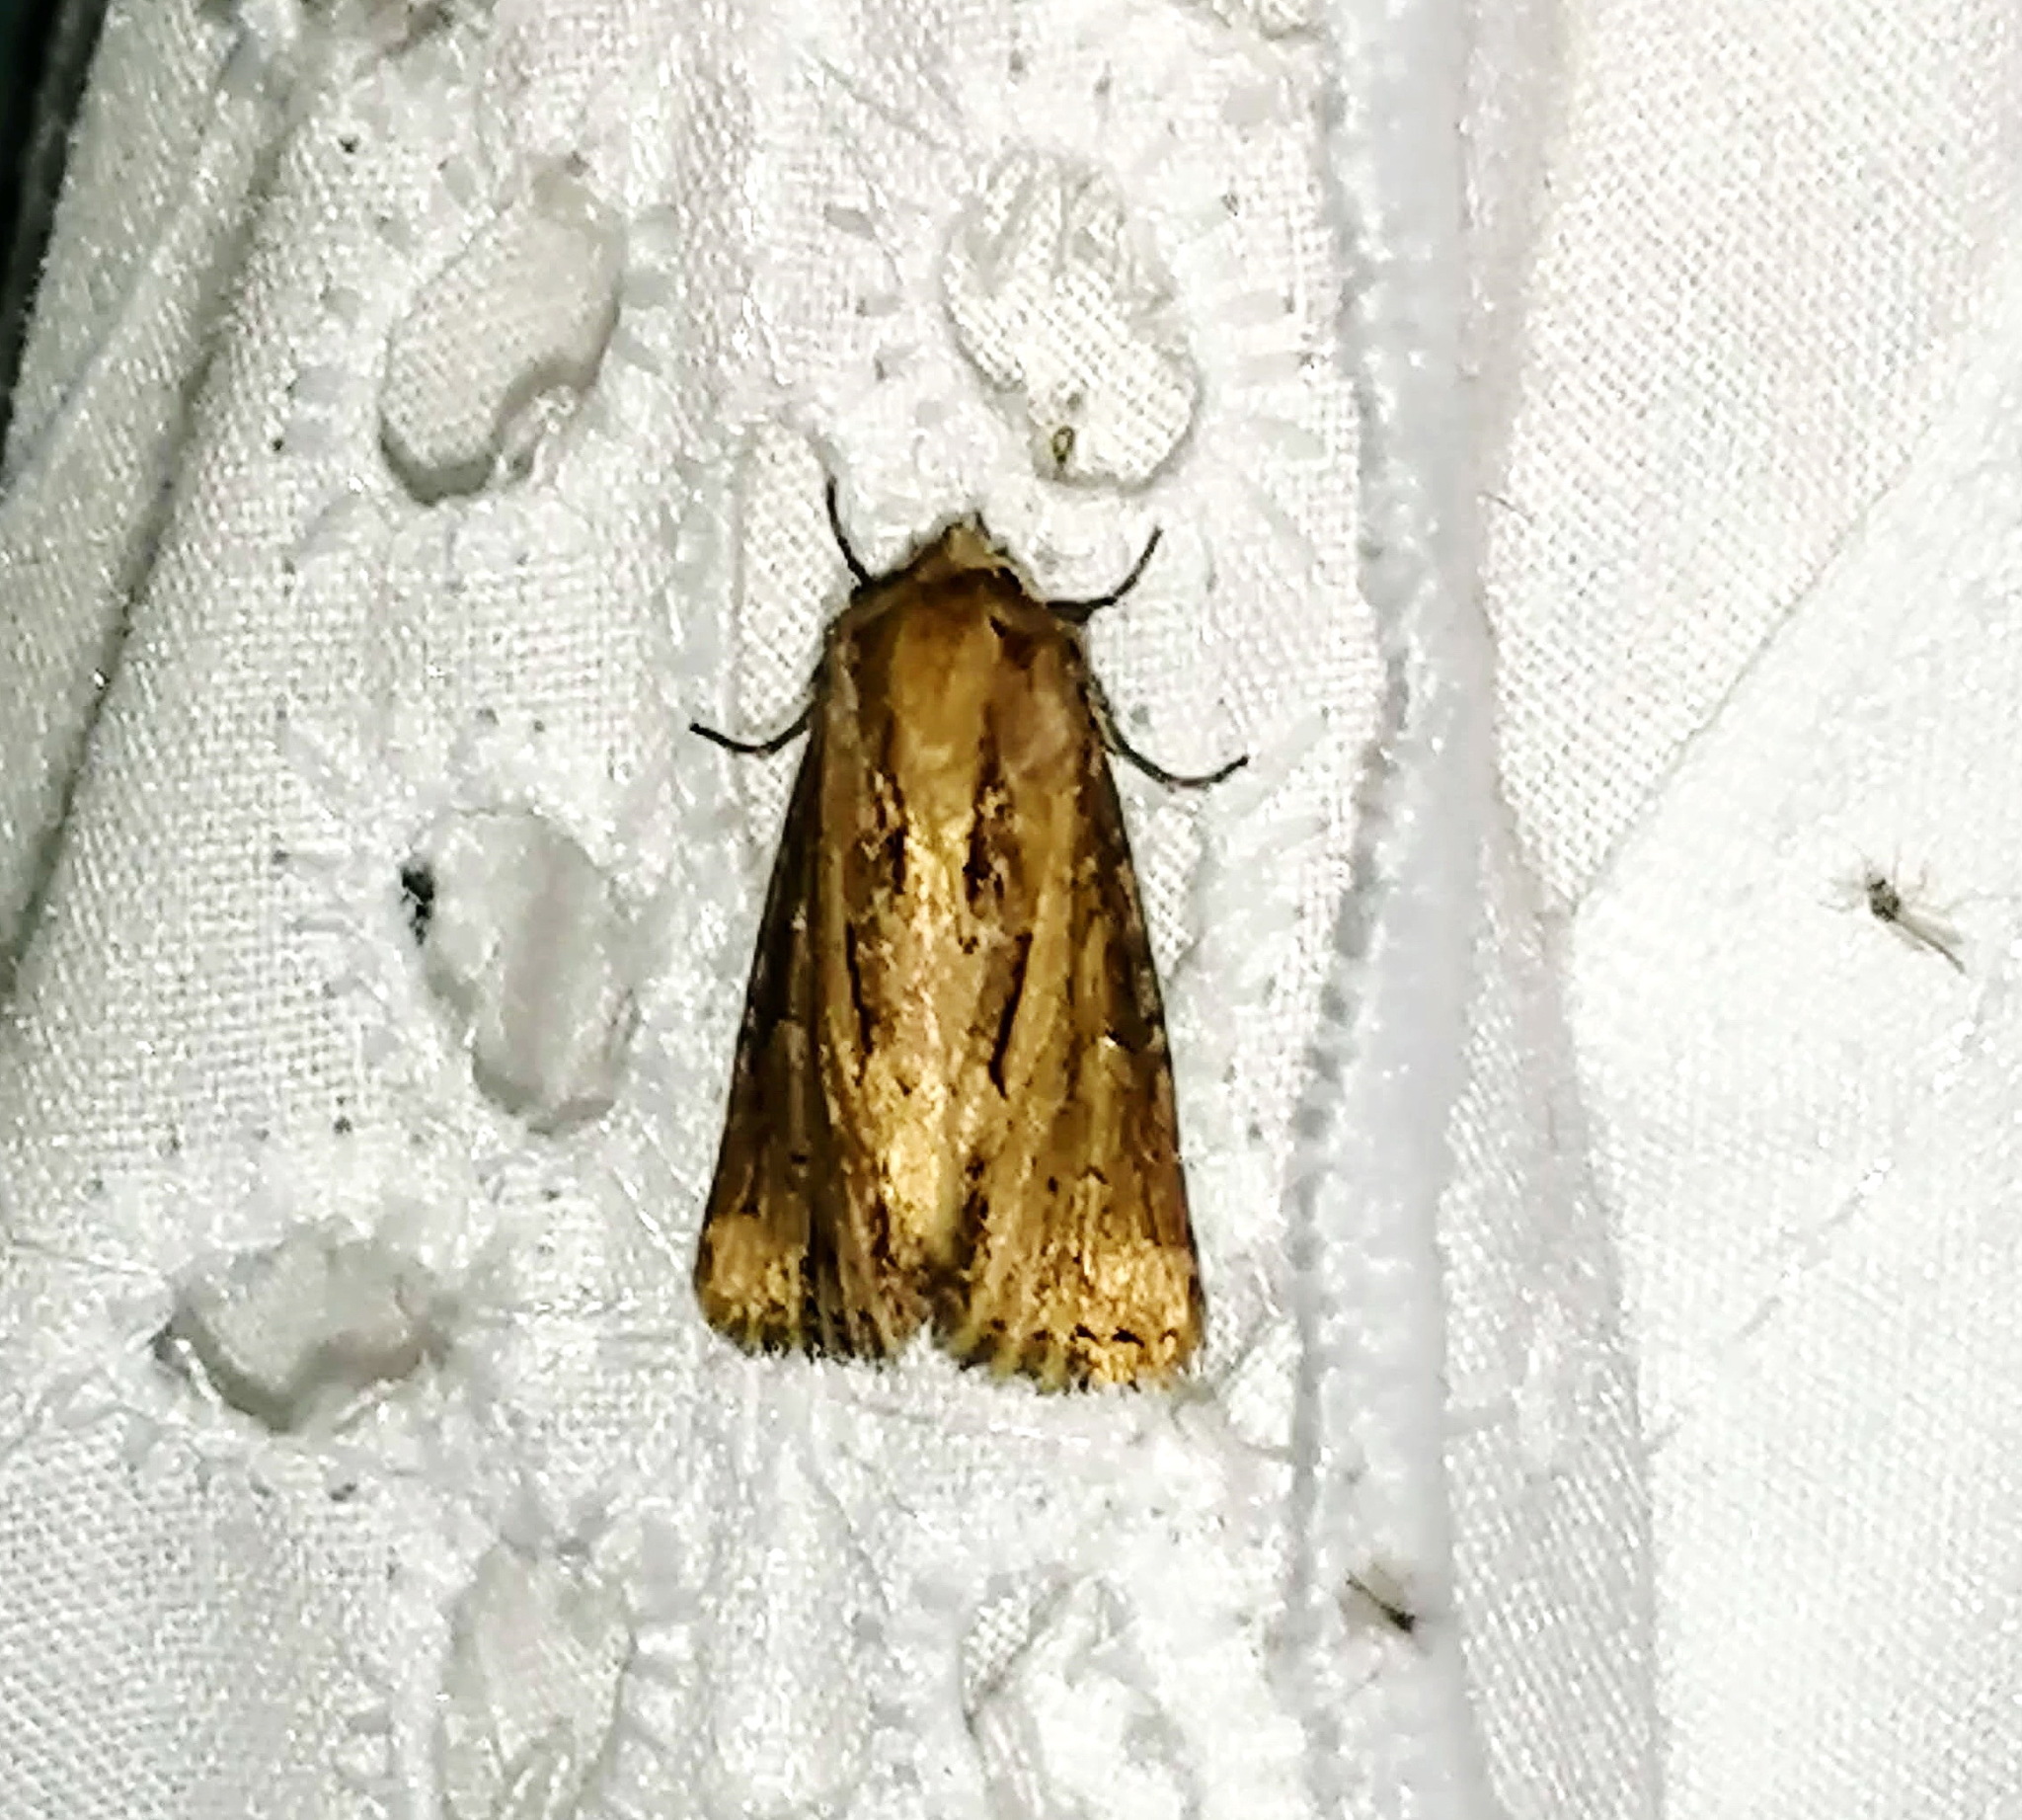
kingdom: Animalia
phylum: Arthropoda
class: Insecta
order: Lepidoptera
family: Noctuidae
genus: Xylomoia
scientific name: Xylomoia chagnoni
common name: Reed canary grass borer moth
